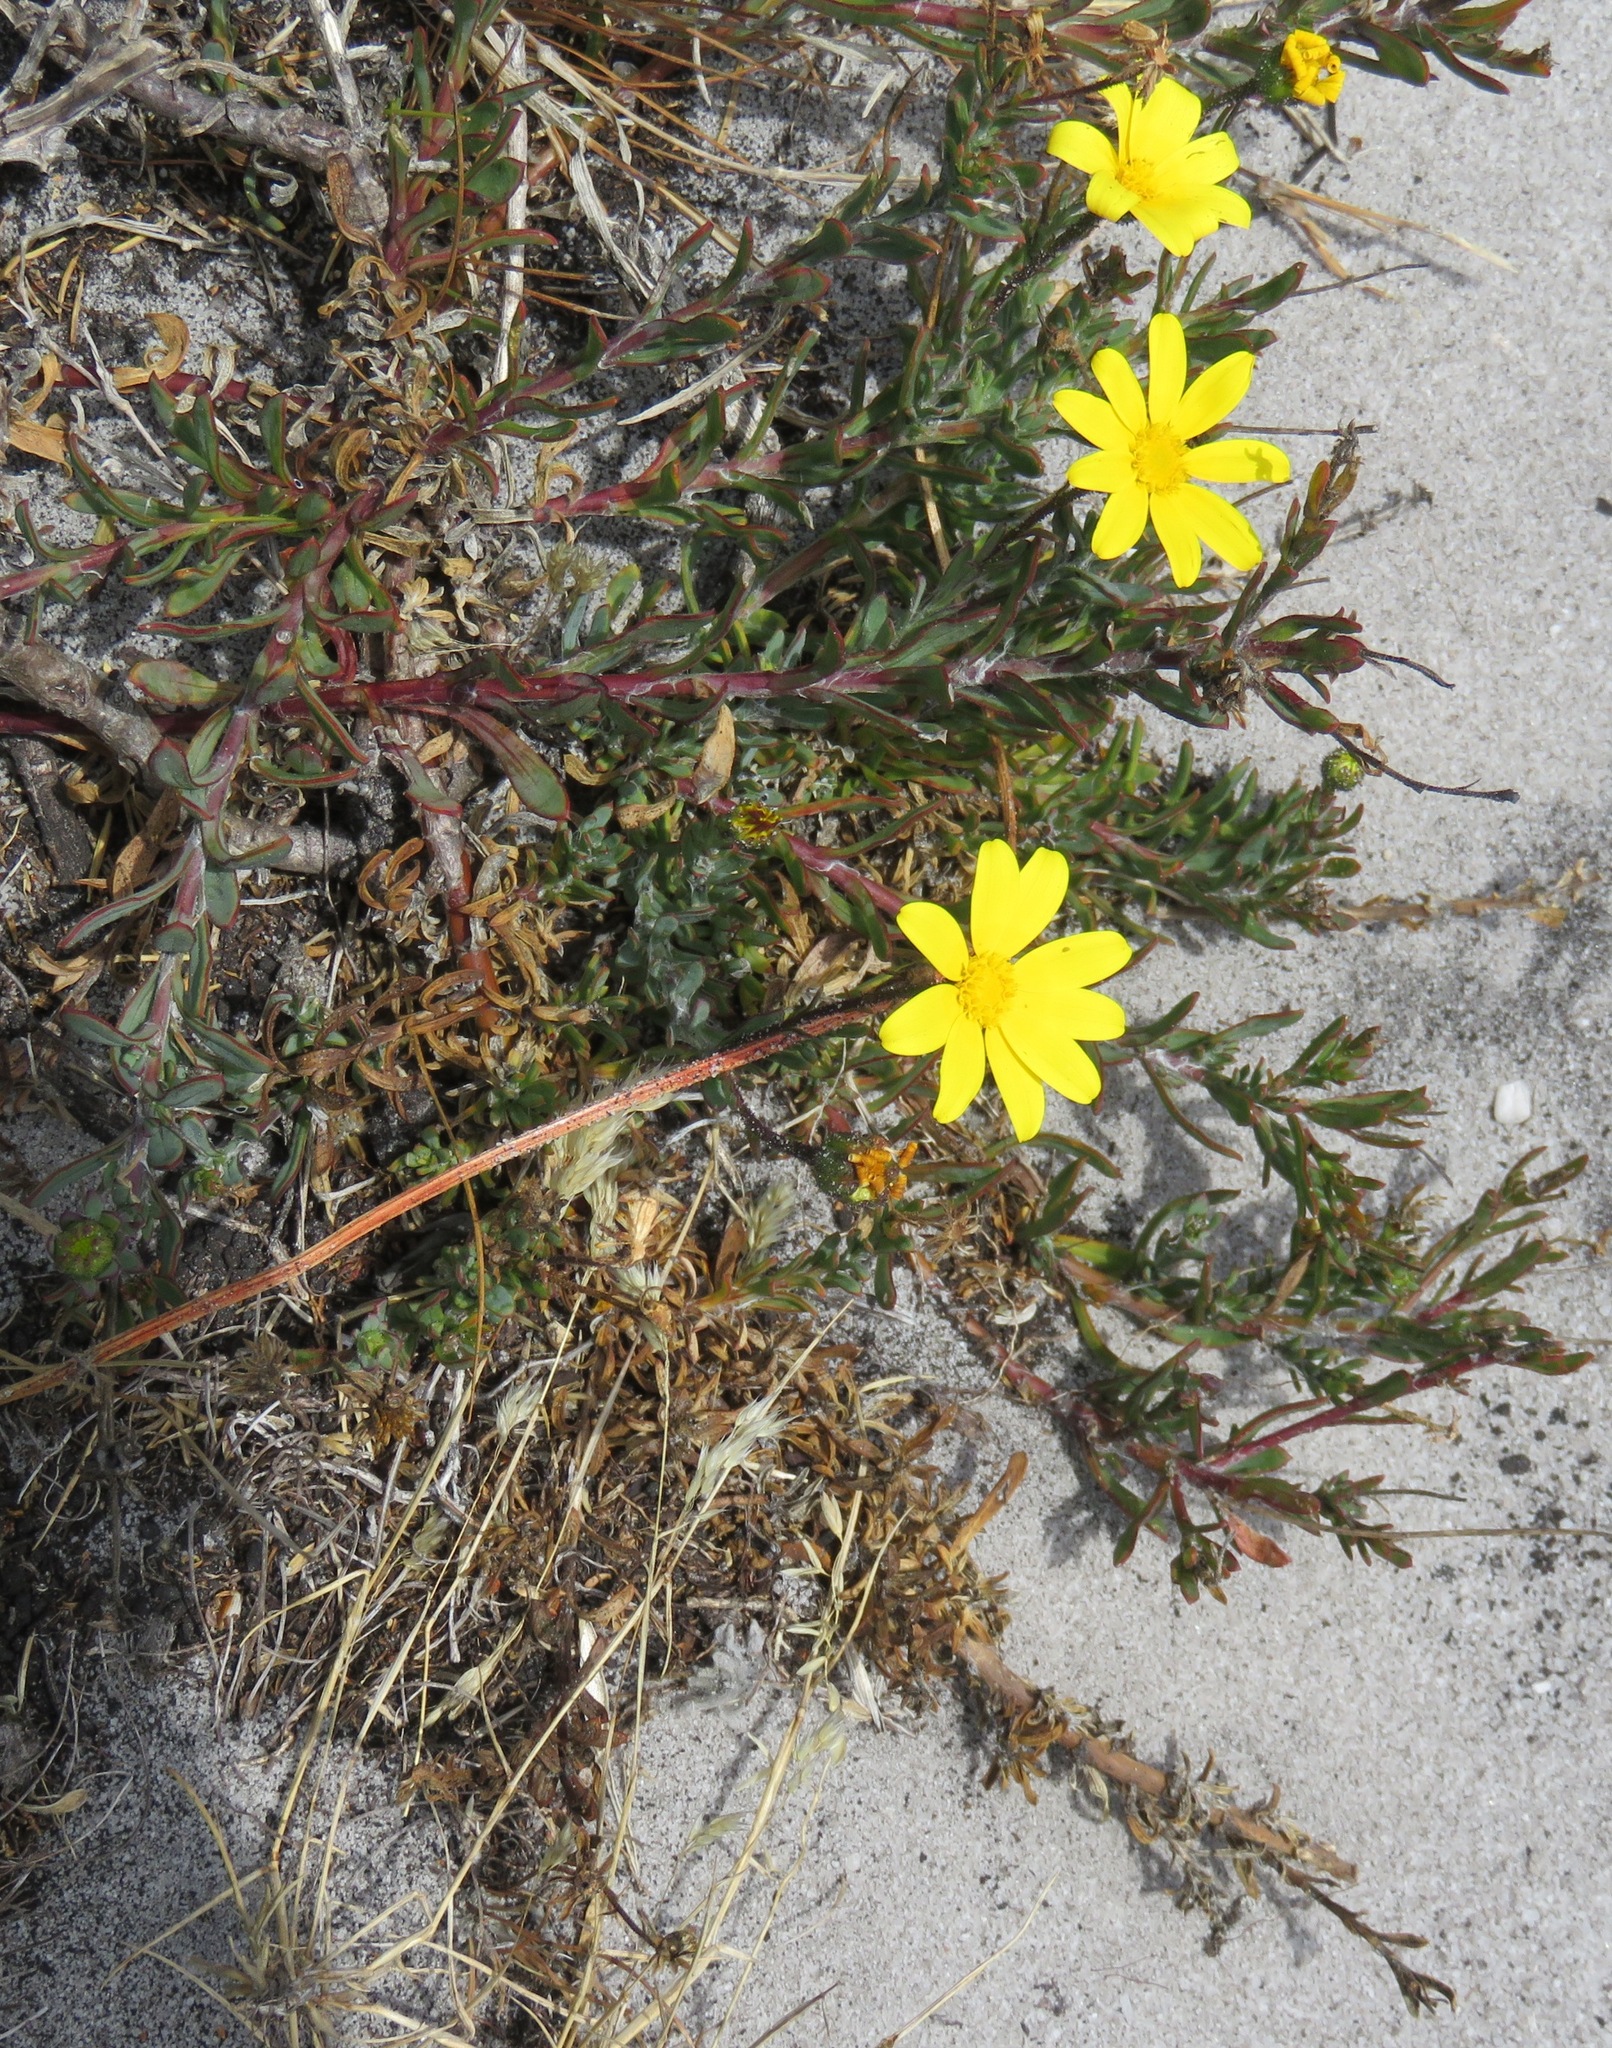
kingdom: Plantae
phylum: Tracheophyta
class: Magnoliopsida
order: Asterales
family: Asteraceae
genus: Osteospermum
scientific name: Osteospermum polygaloides
